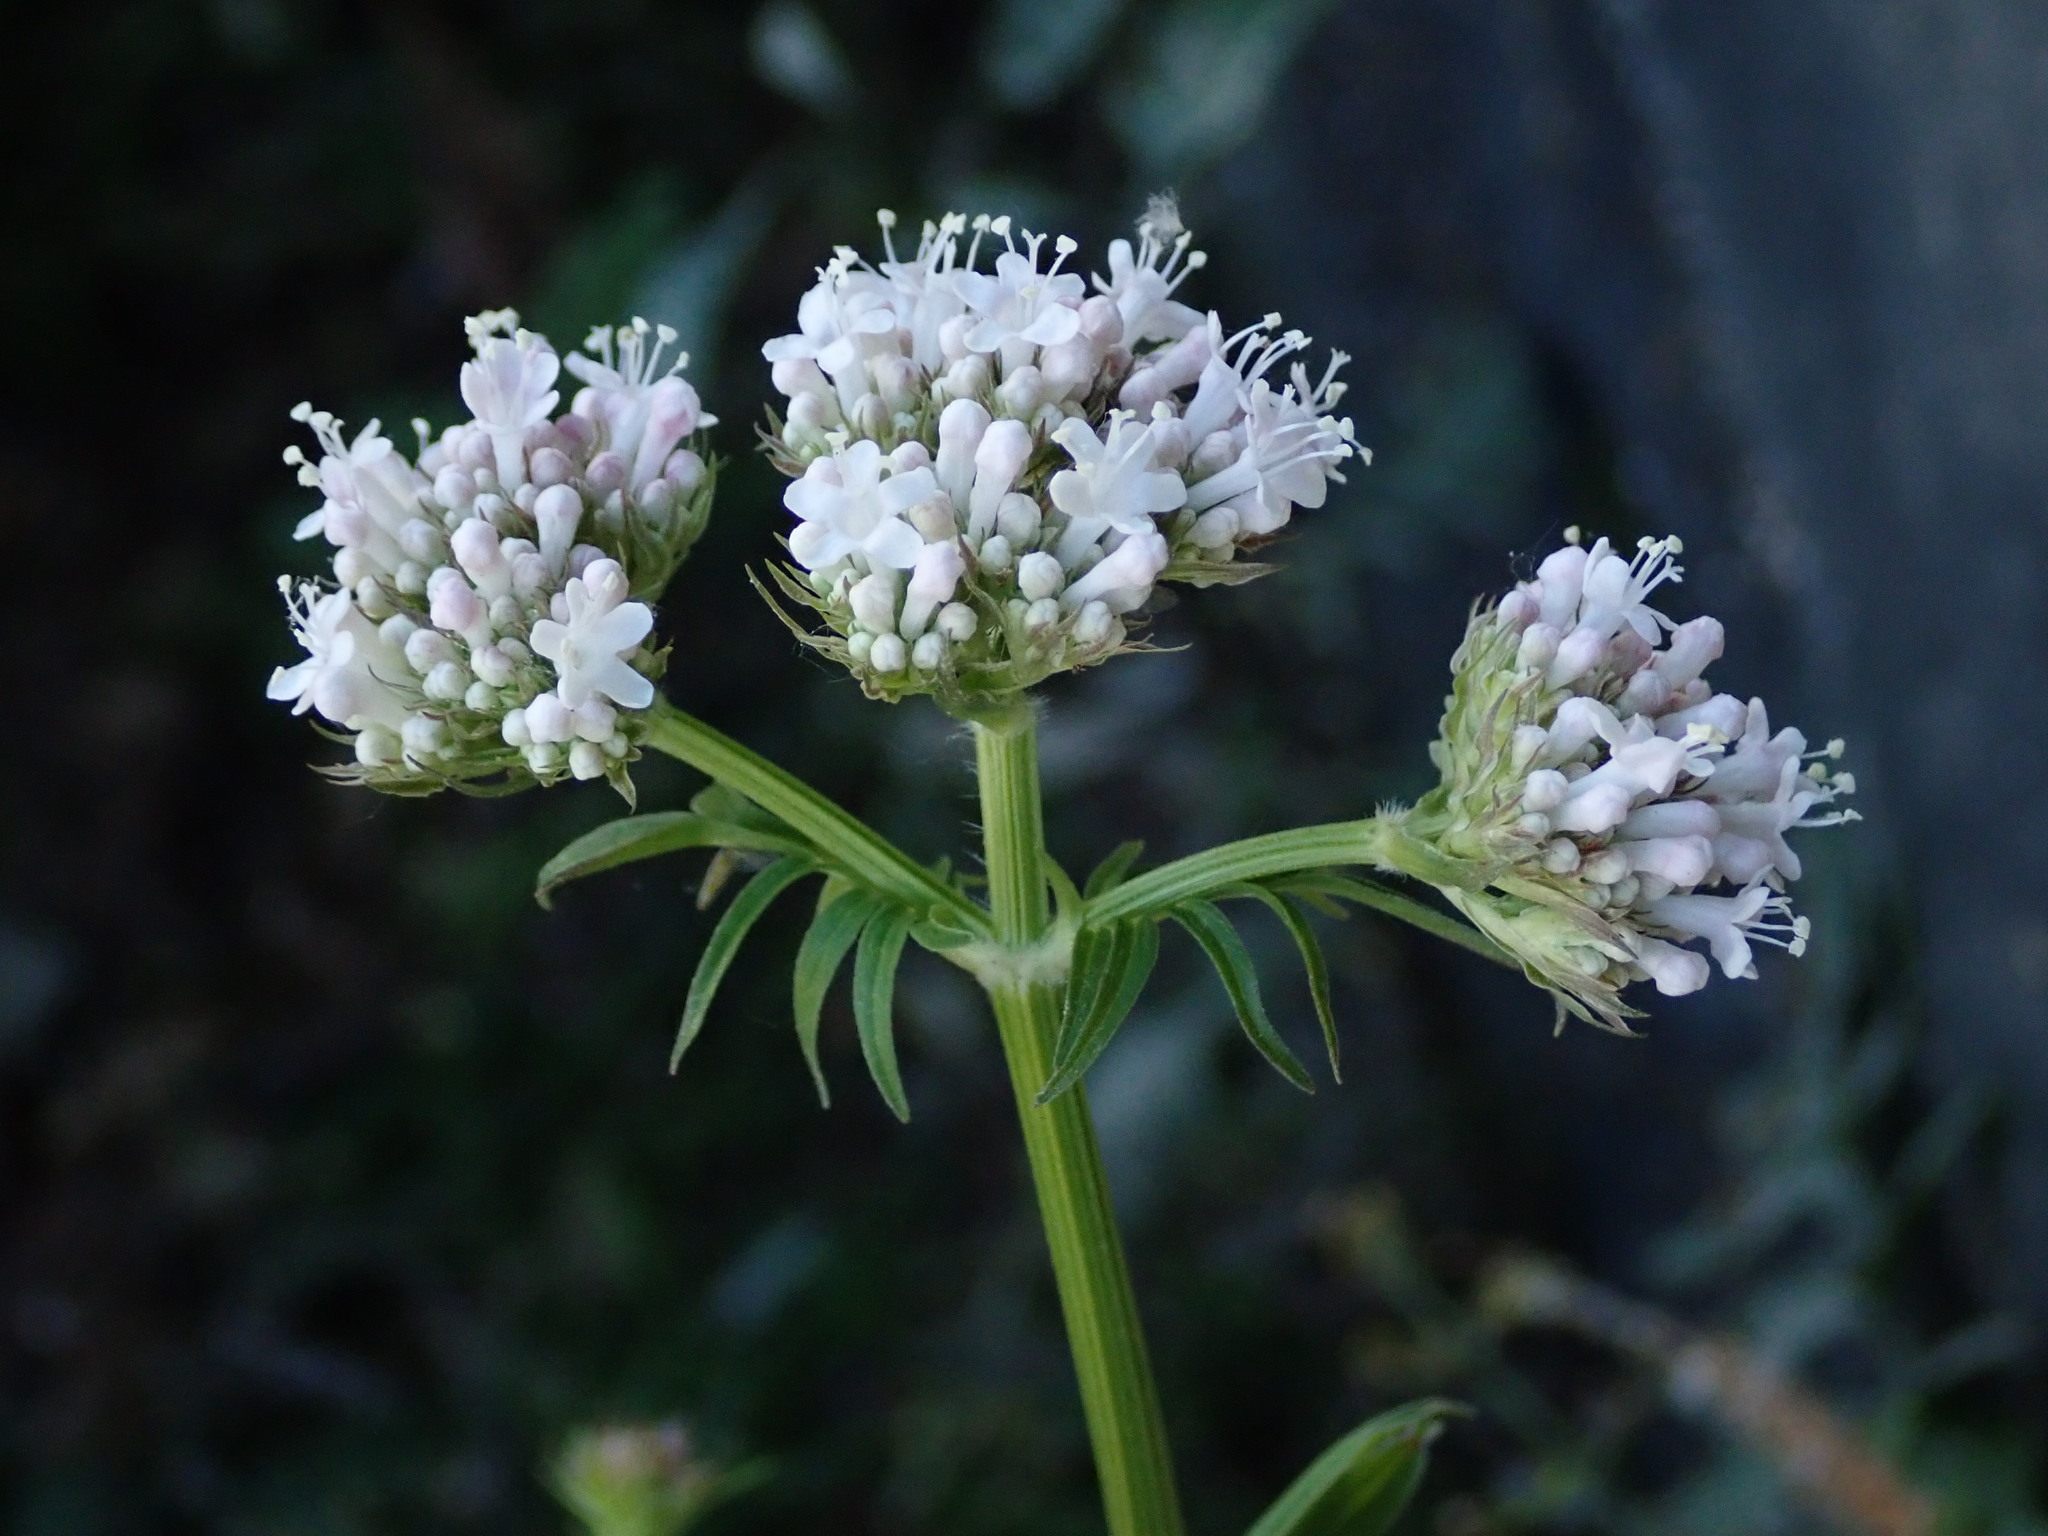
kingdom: Plantae
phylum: Tracheophyta
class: Magnoliopsida
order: Dipsacales
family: Caprifoliaceae
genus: Valeriana
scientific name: Valeriana officinalis
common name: Common valerian
